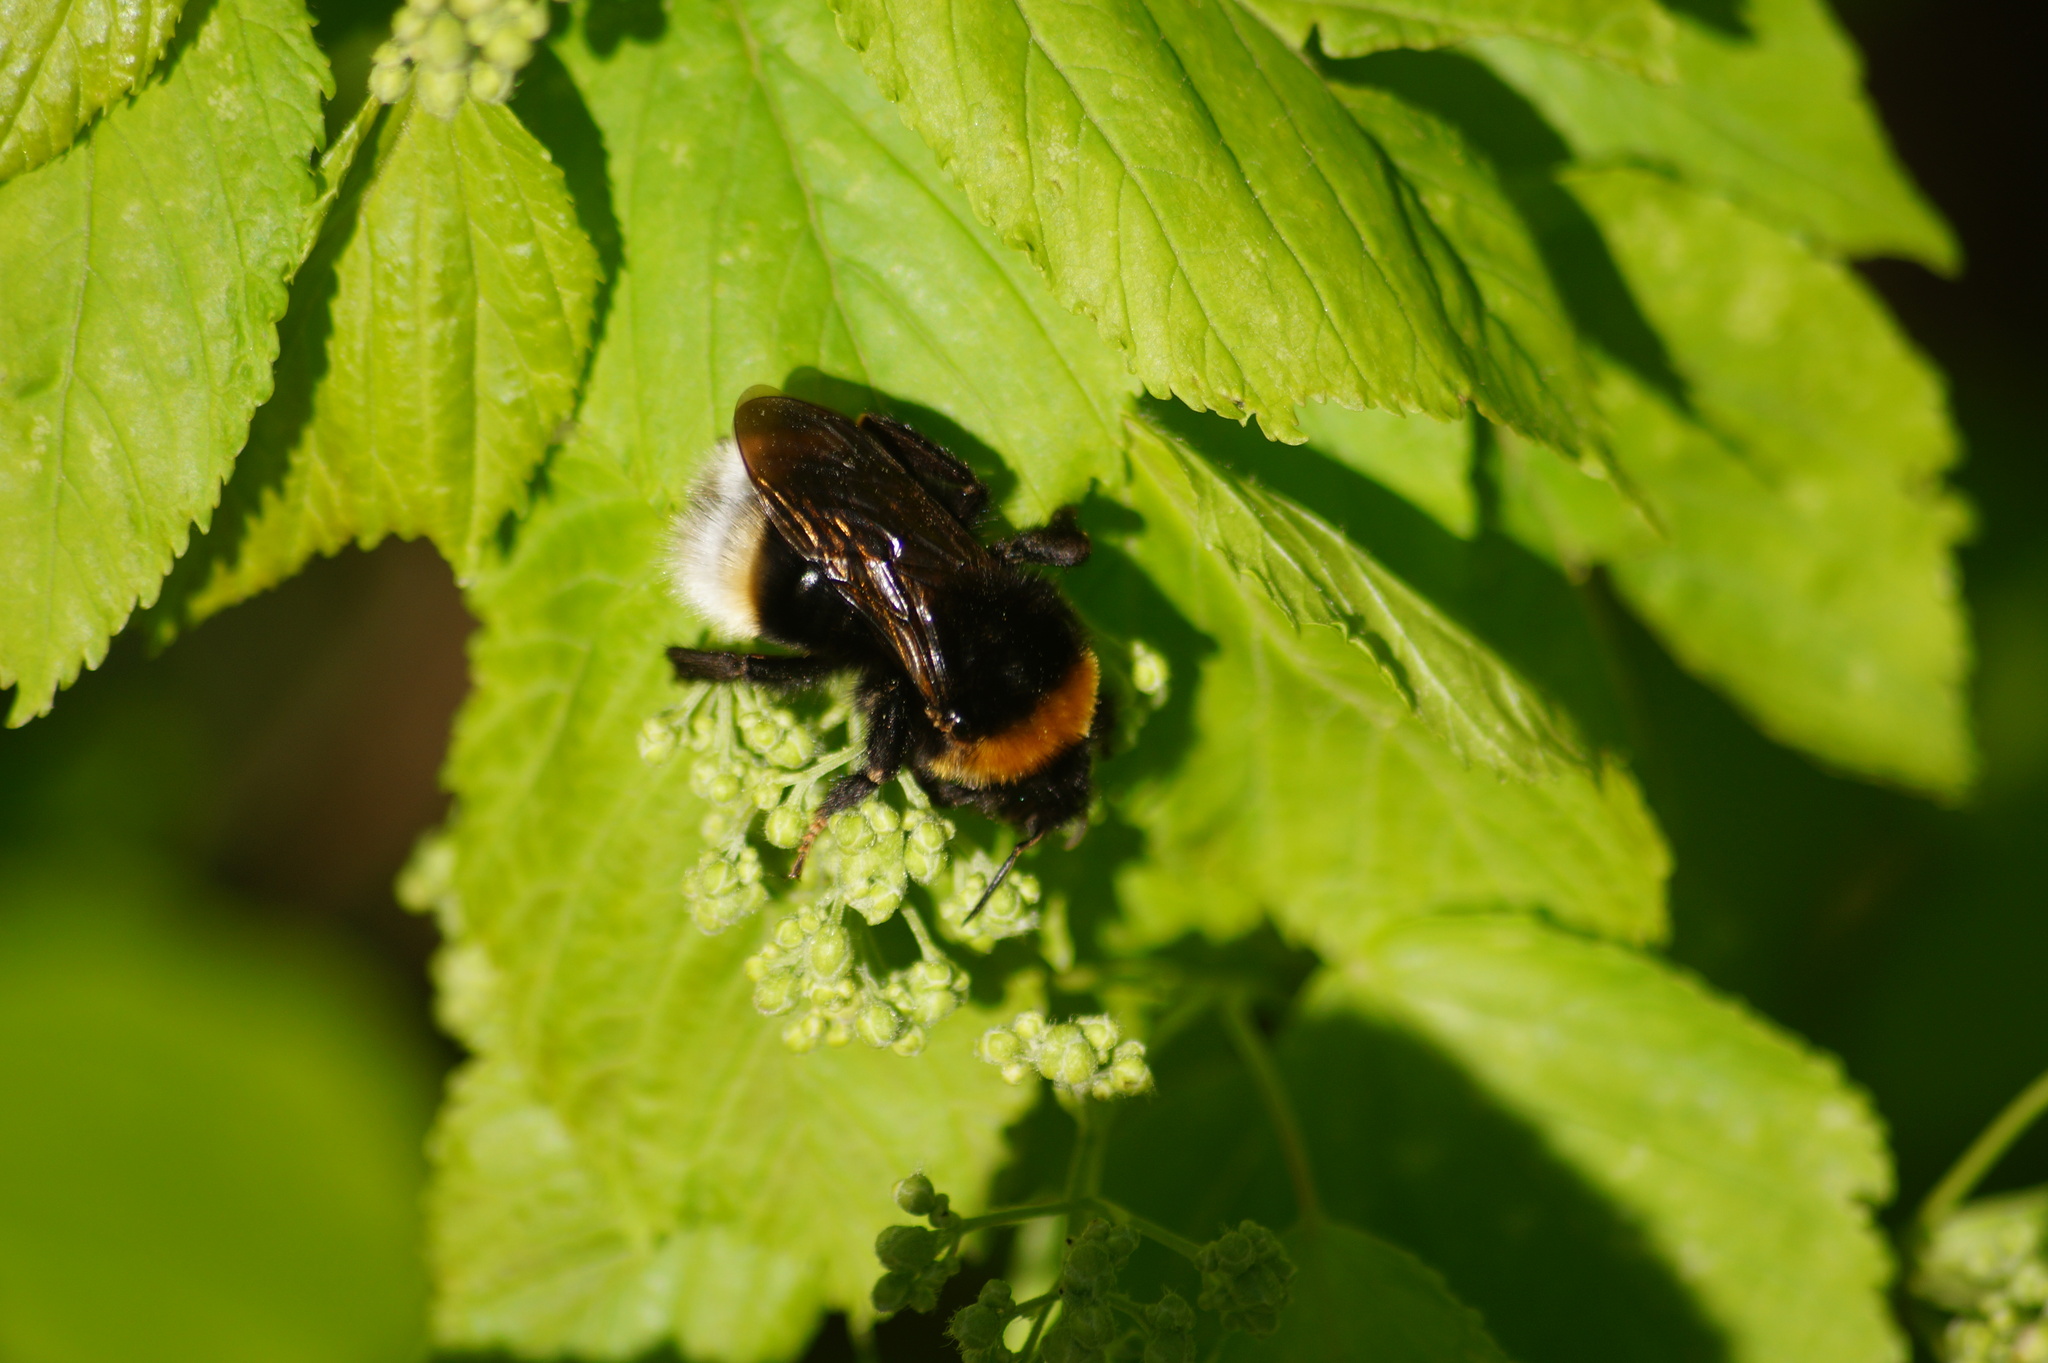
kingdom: Animalia
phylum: Arthropoda
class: Insecta
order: Hymenoptera
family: Apidae
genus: Bombus
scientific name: Bombus vestalis
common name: Vestal cuckoo bee
